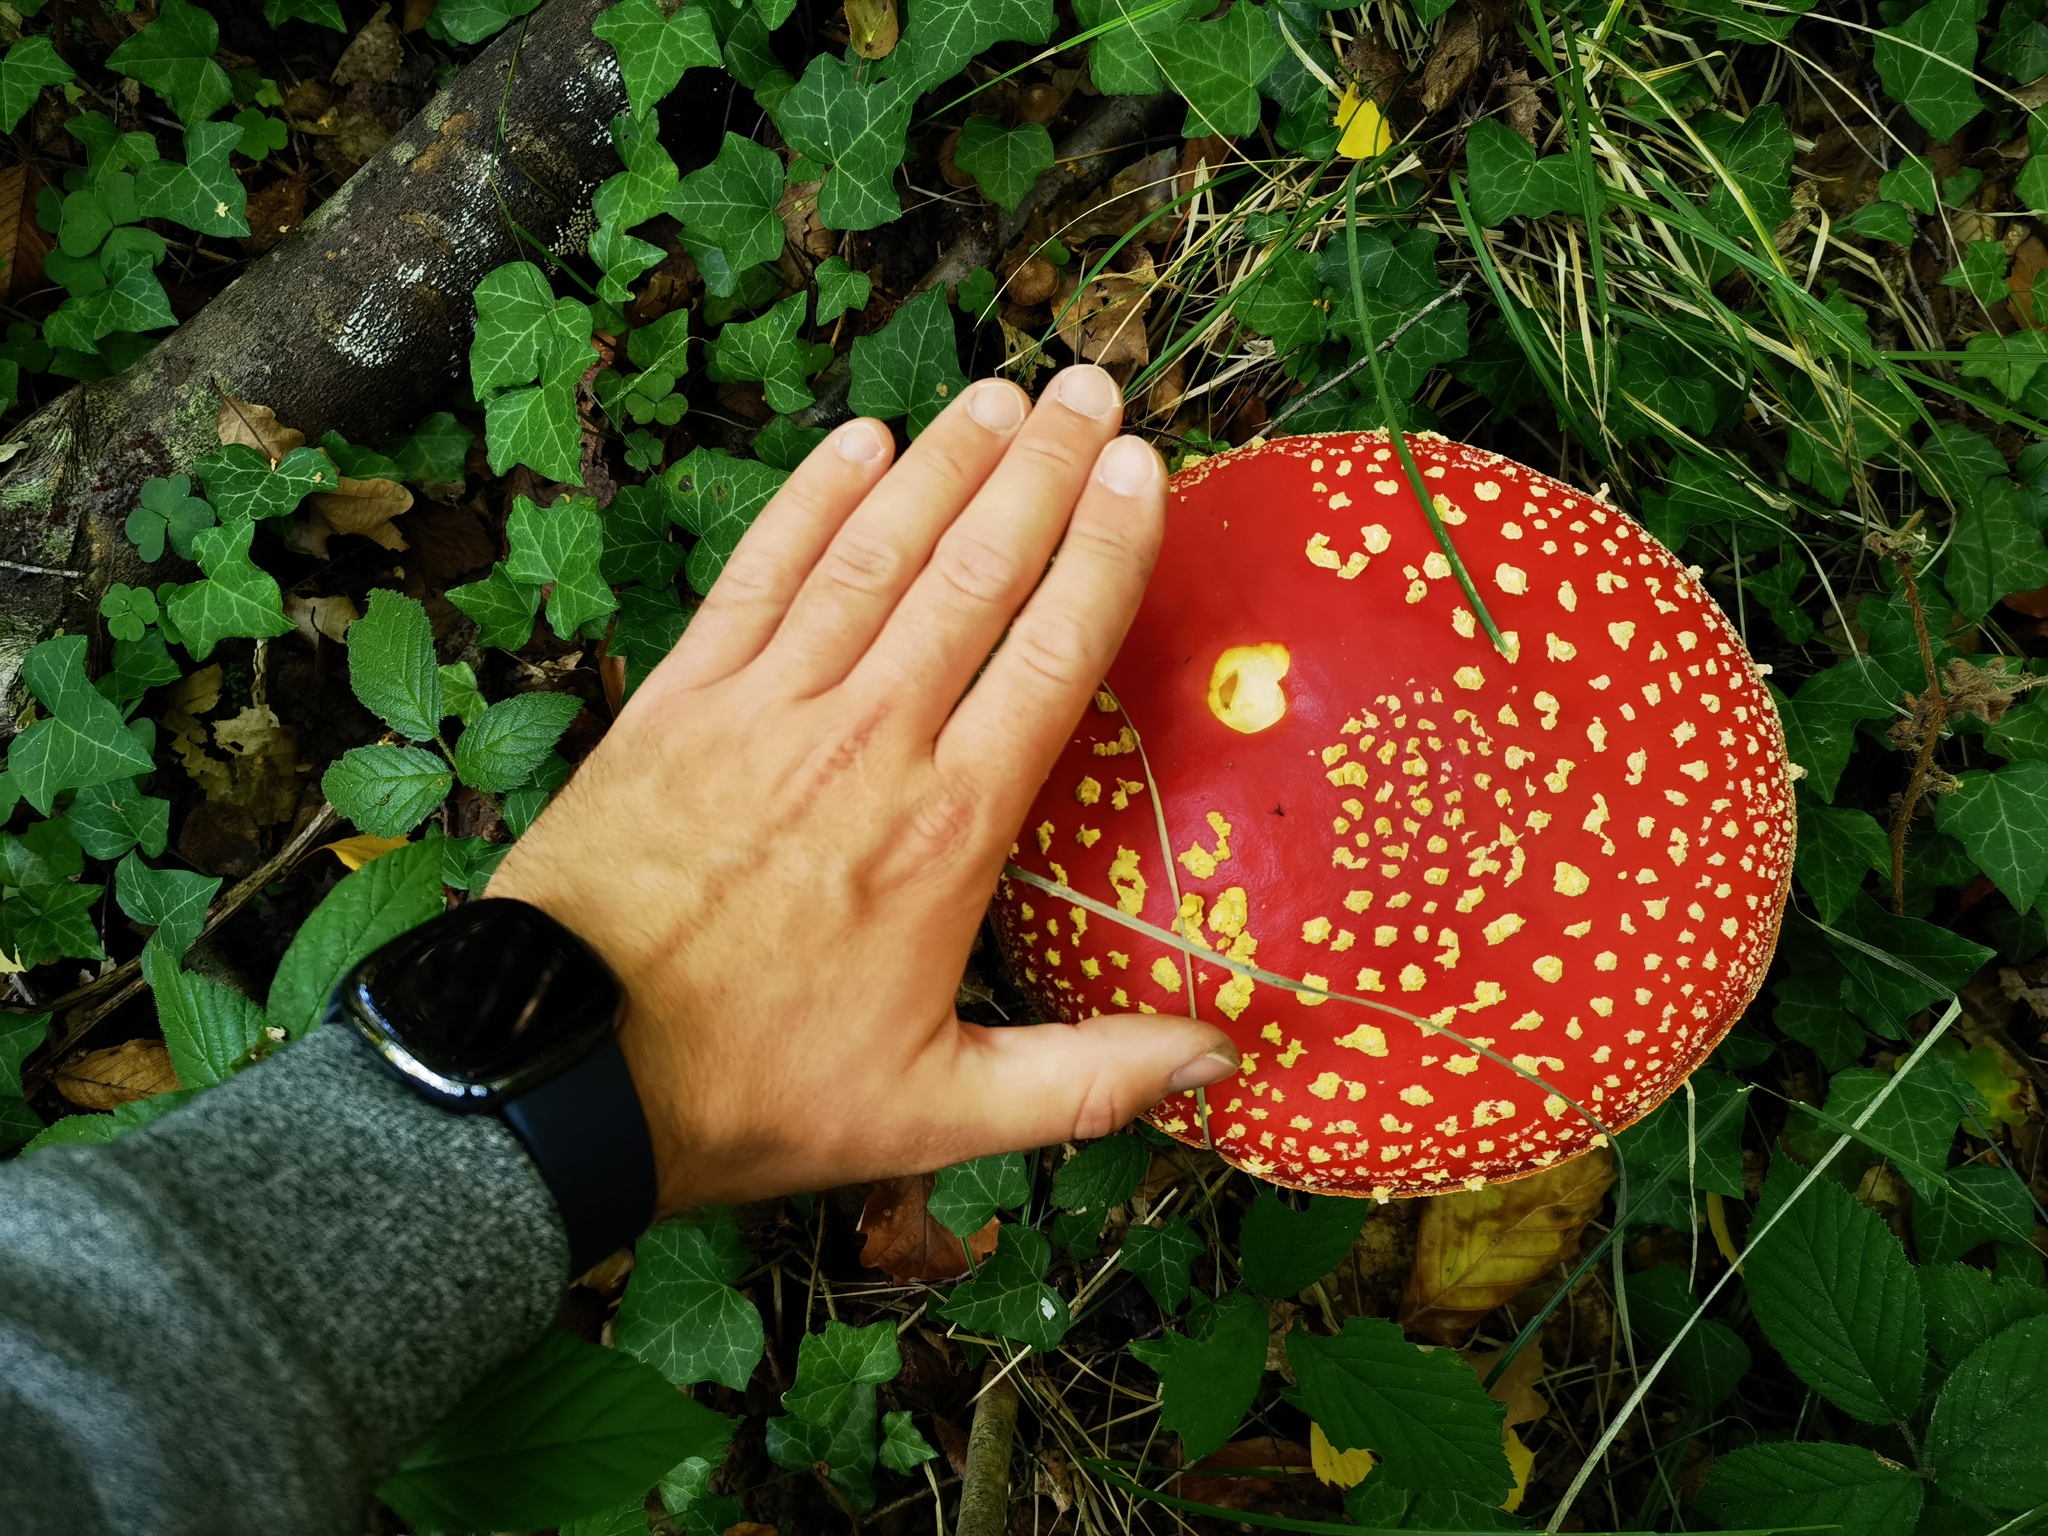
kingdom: Fungi
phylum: Basidiomycota
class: Agaricomycetes
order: Agaricales
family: Amanitaceae
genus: Amanita
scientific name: Amanita muscaria
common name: Fly agaric
